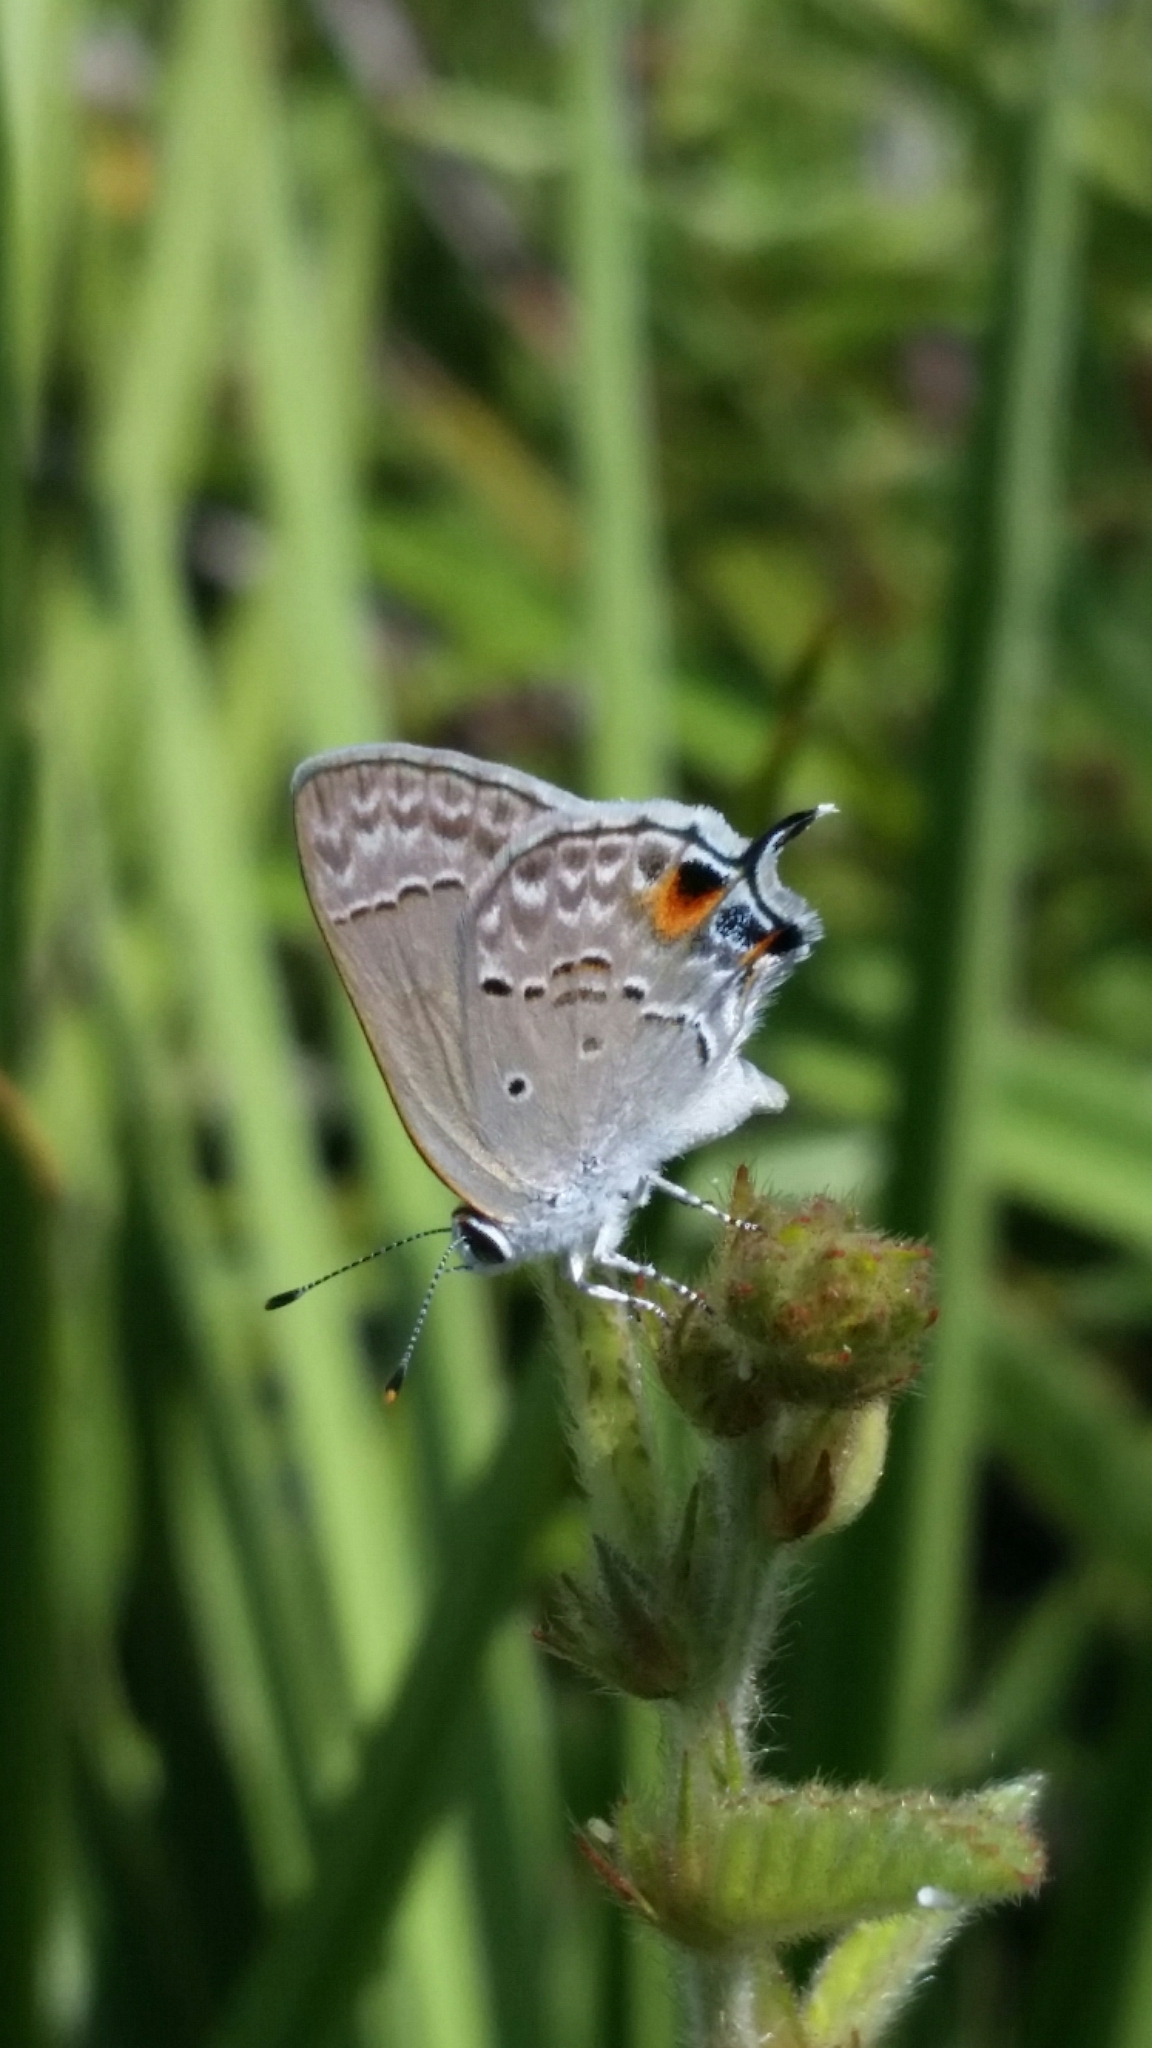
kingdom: Animalia
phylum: Arthropoda
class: Insecta
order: Lepidoptera
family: Lycaenidae
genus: Callicista
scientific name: Callicista columella
